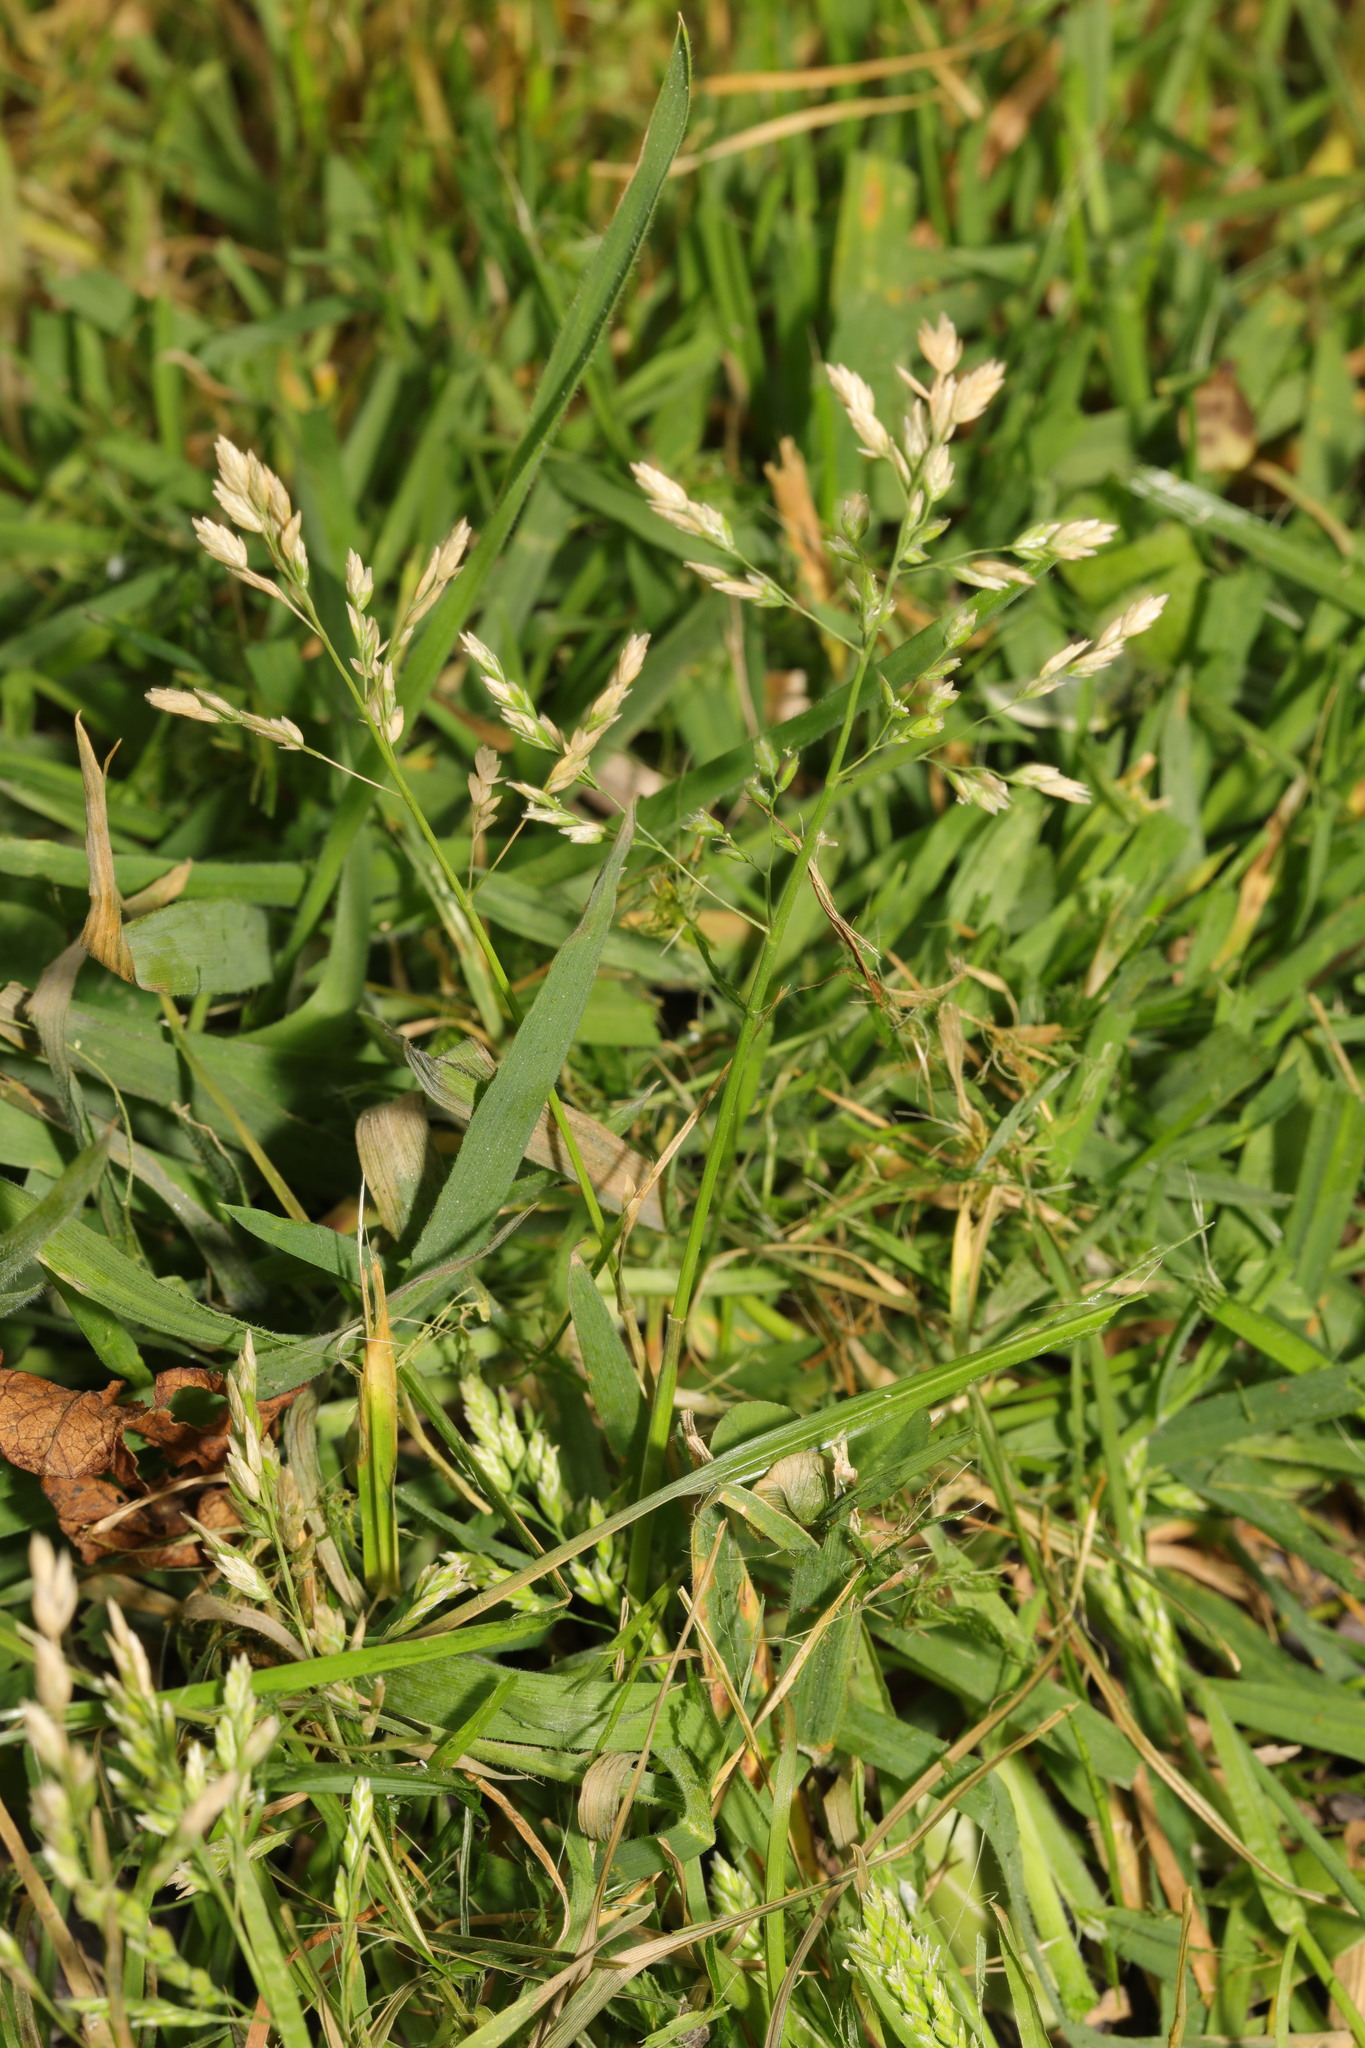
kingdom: Plantae
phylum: Tracheophyta
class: Liliopsida
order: Poales
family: Poaceae
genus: Poa
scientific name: Poa annua
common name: Annual bluegrass
